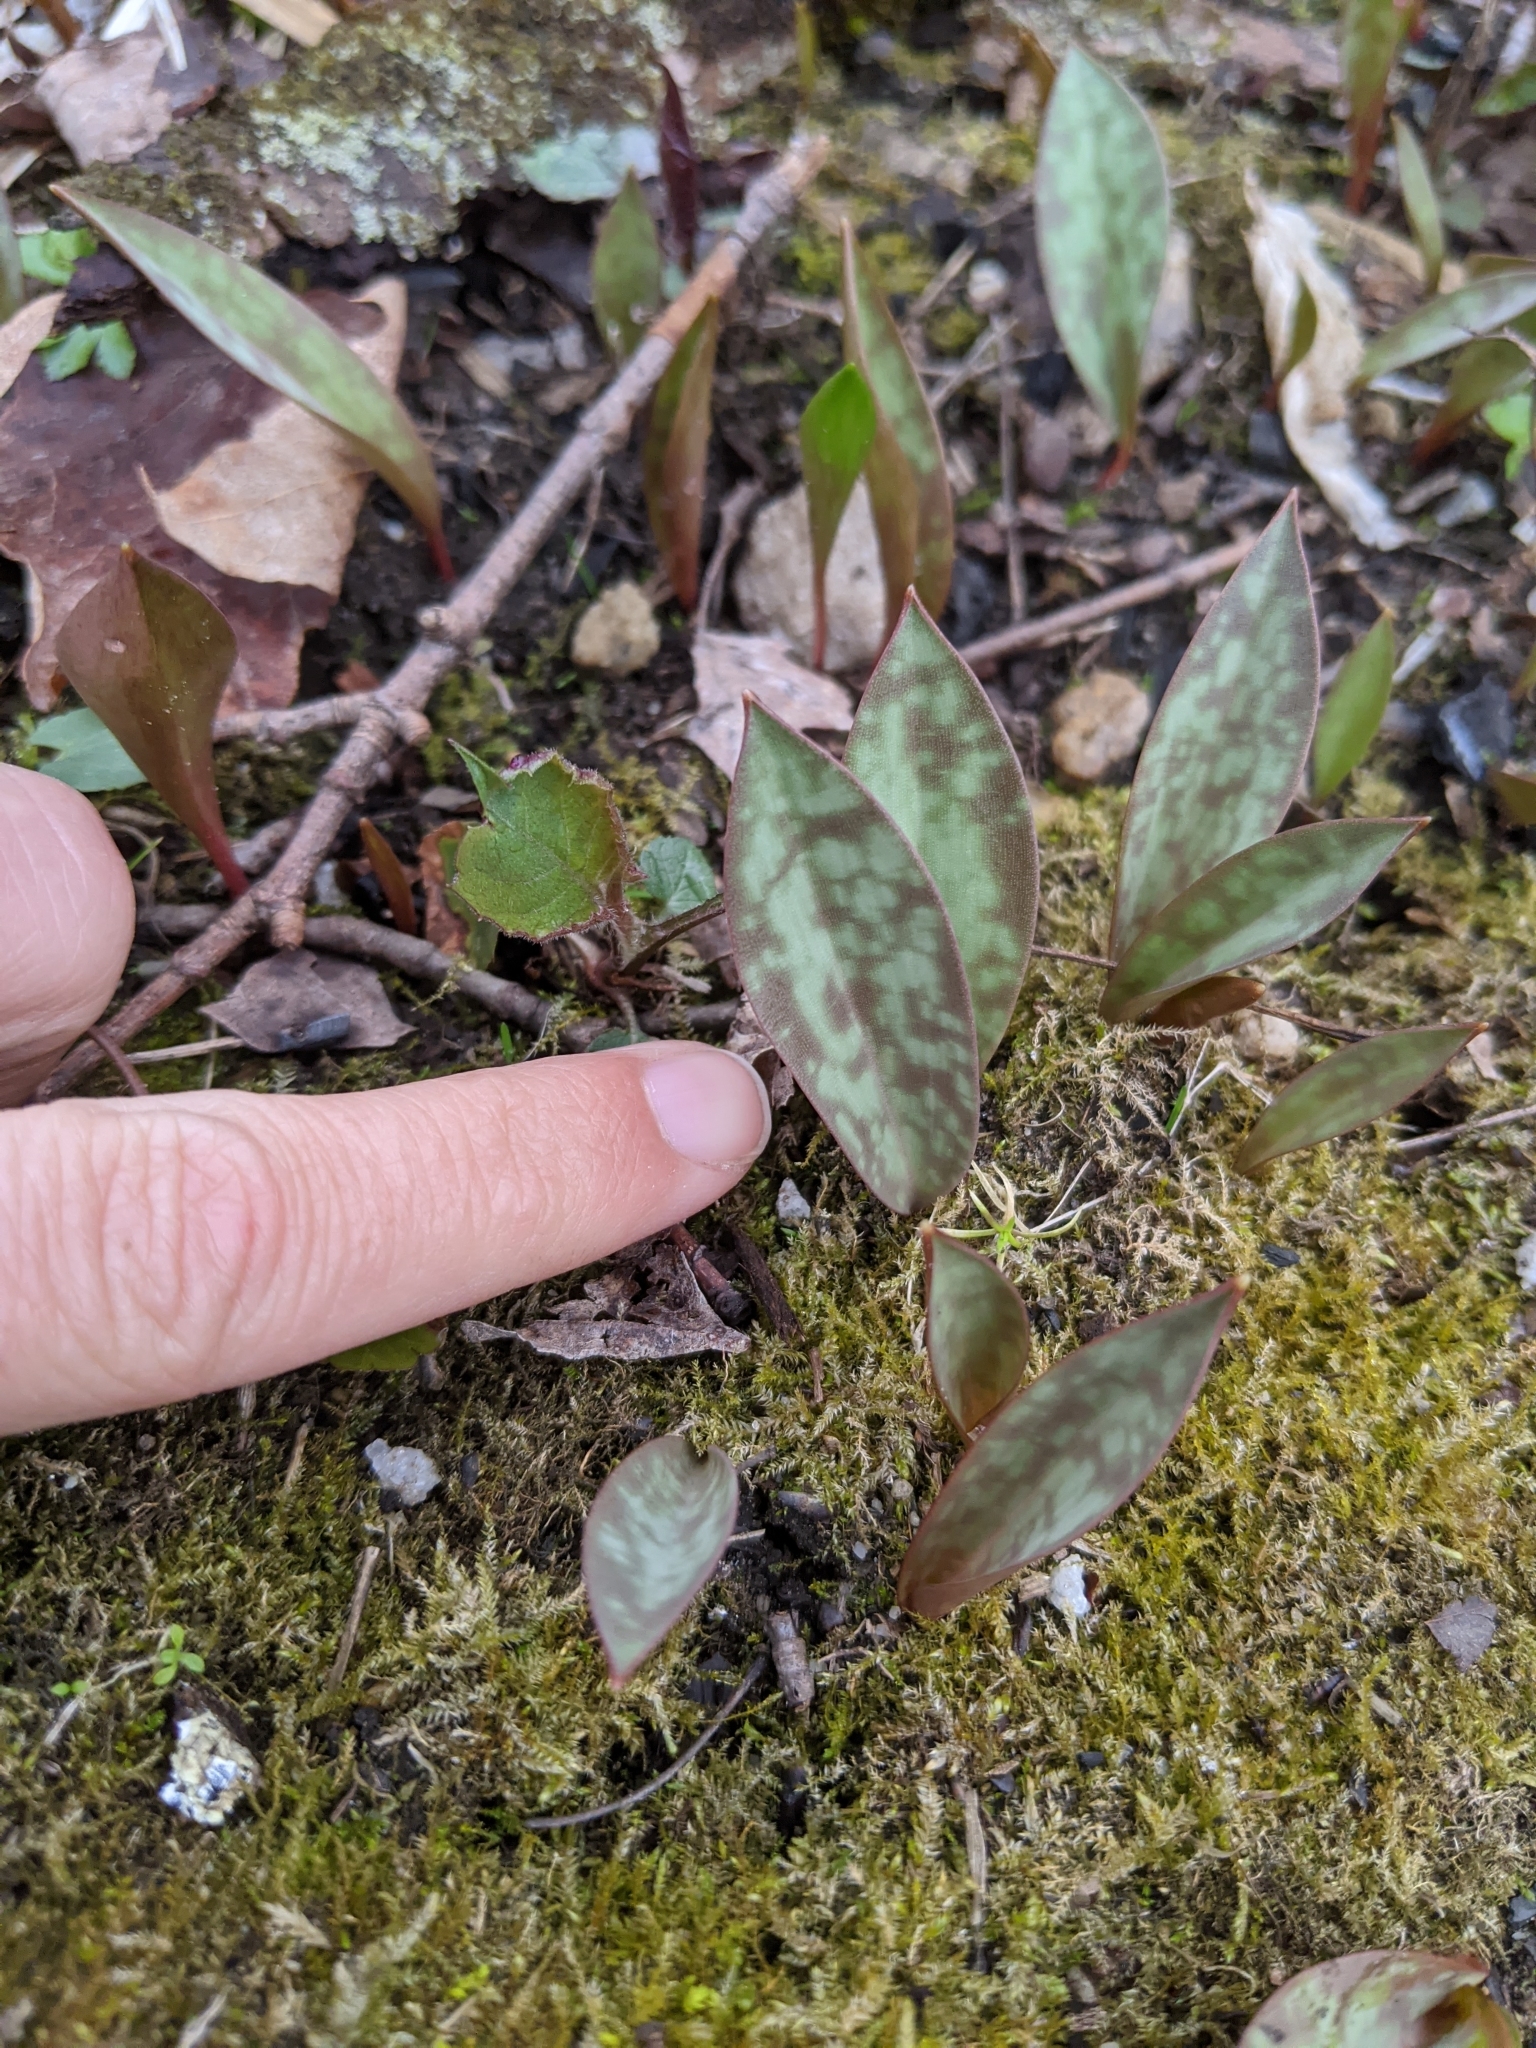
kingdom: Plantae
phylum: Tracheophyta
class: Liliopsida
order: Liliales
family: Liliaceae
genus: Erythronium
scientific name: Erythronium americanum
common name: Yellow adder's-tongue
